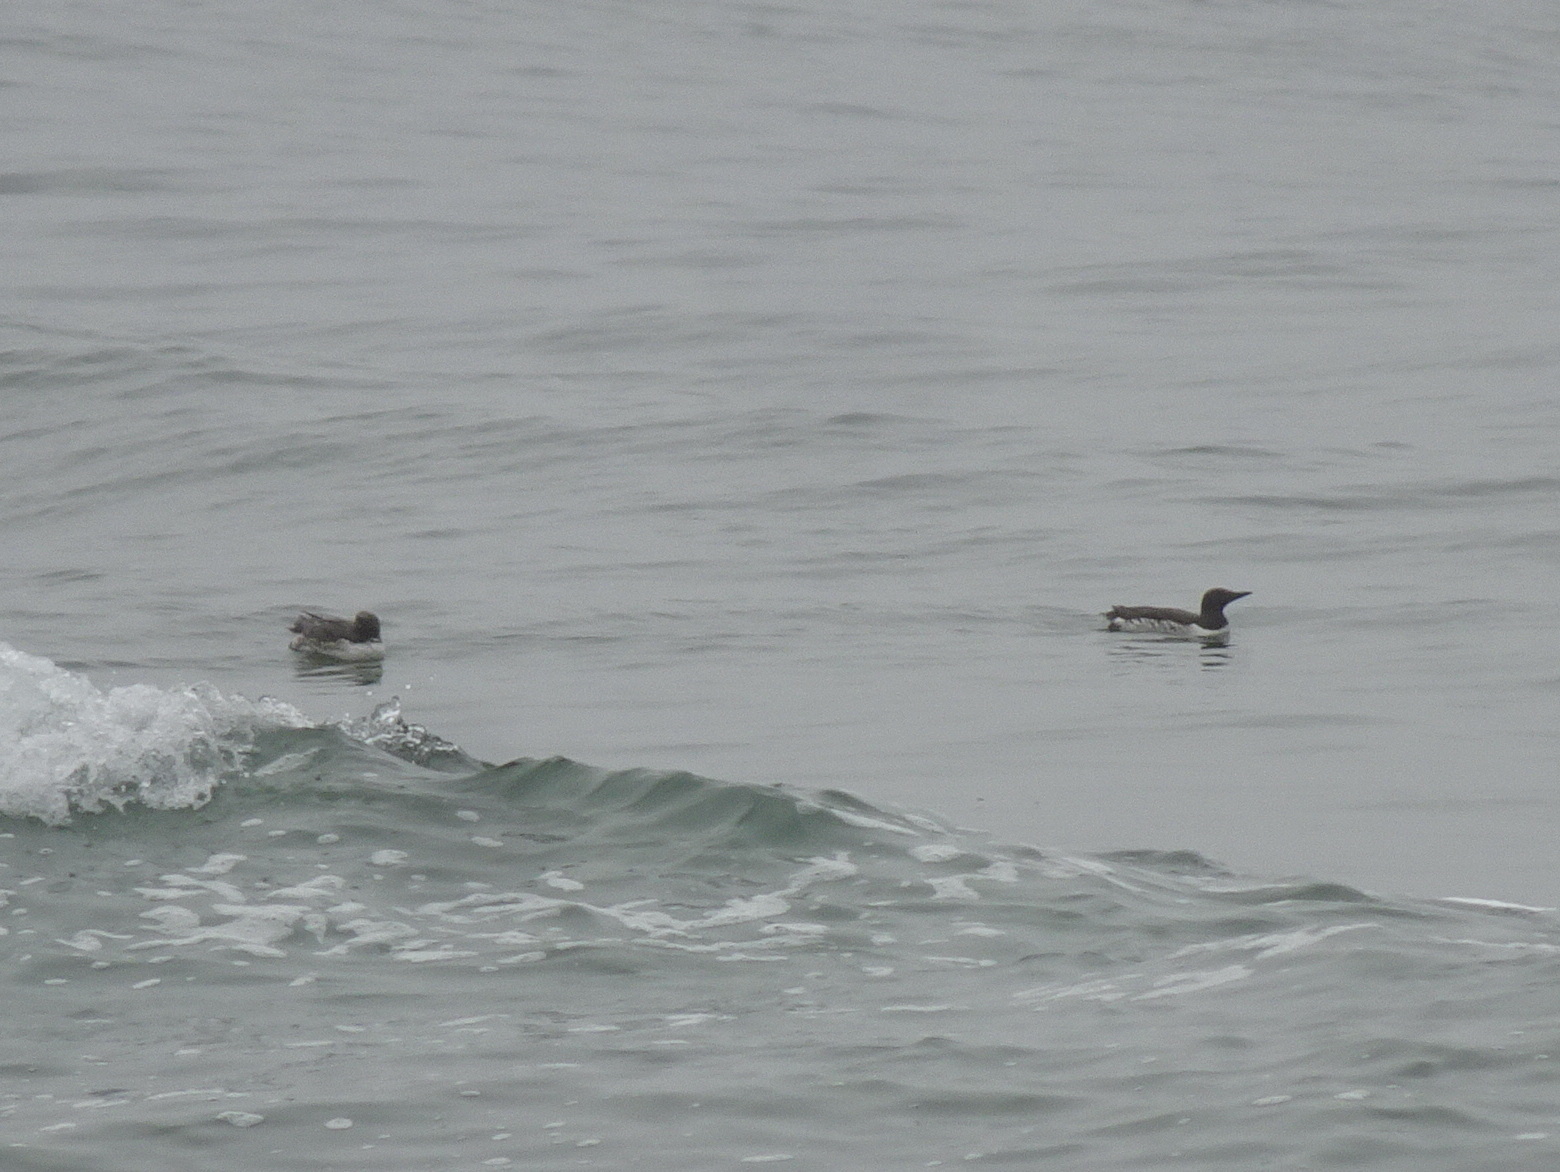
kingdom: Animalia
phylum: Chordata
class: Aves
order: Charadriiformes
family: Alcidae
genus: Uria
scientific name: Uria aalge
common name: Common murre
